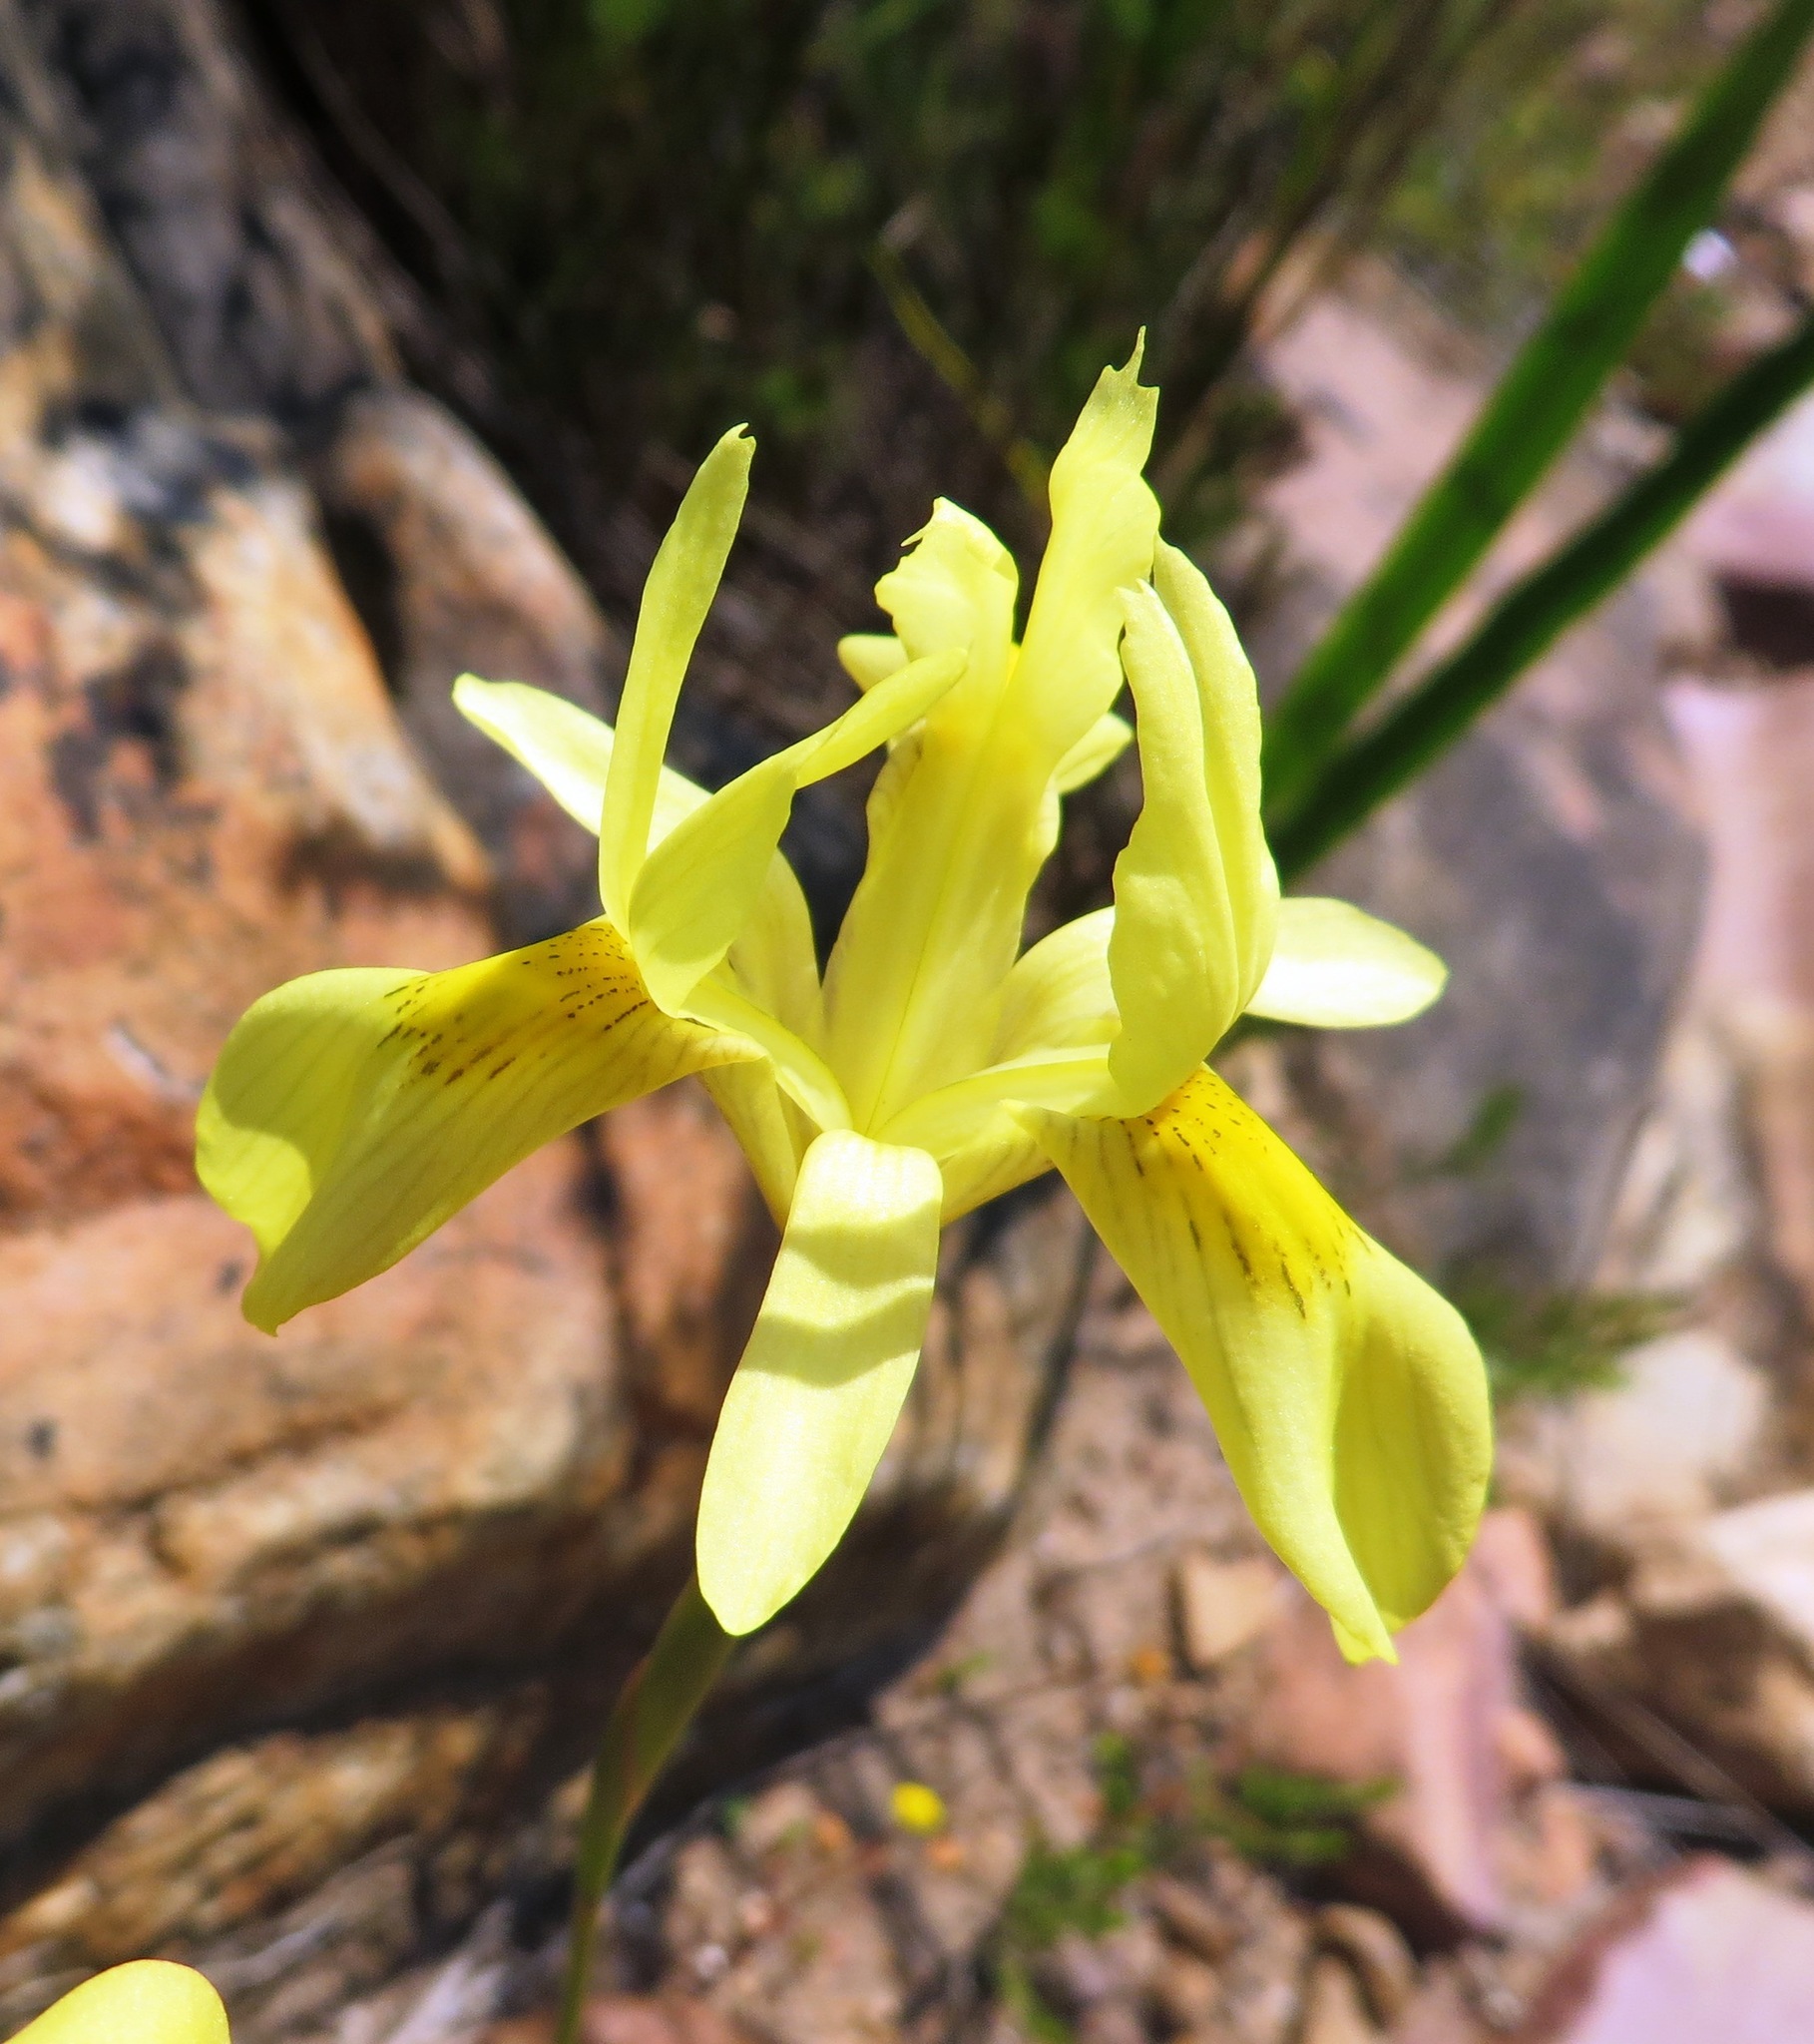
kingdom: Plantae
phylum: Tracheophyta
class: Liliopsida
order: Asparagales
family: Iridaceae
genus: Moraea
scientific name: Moraea neglecta
